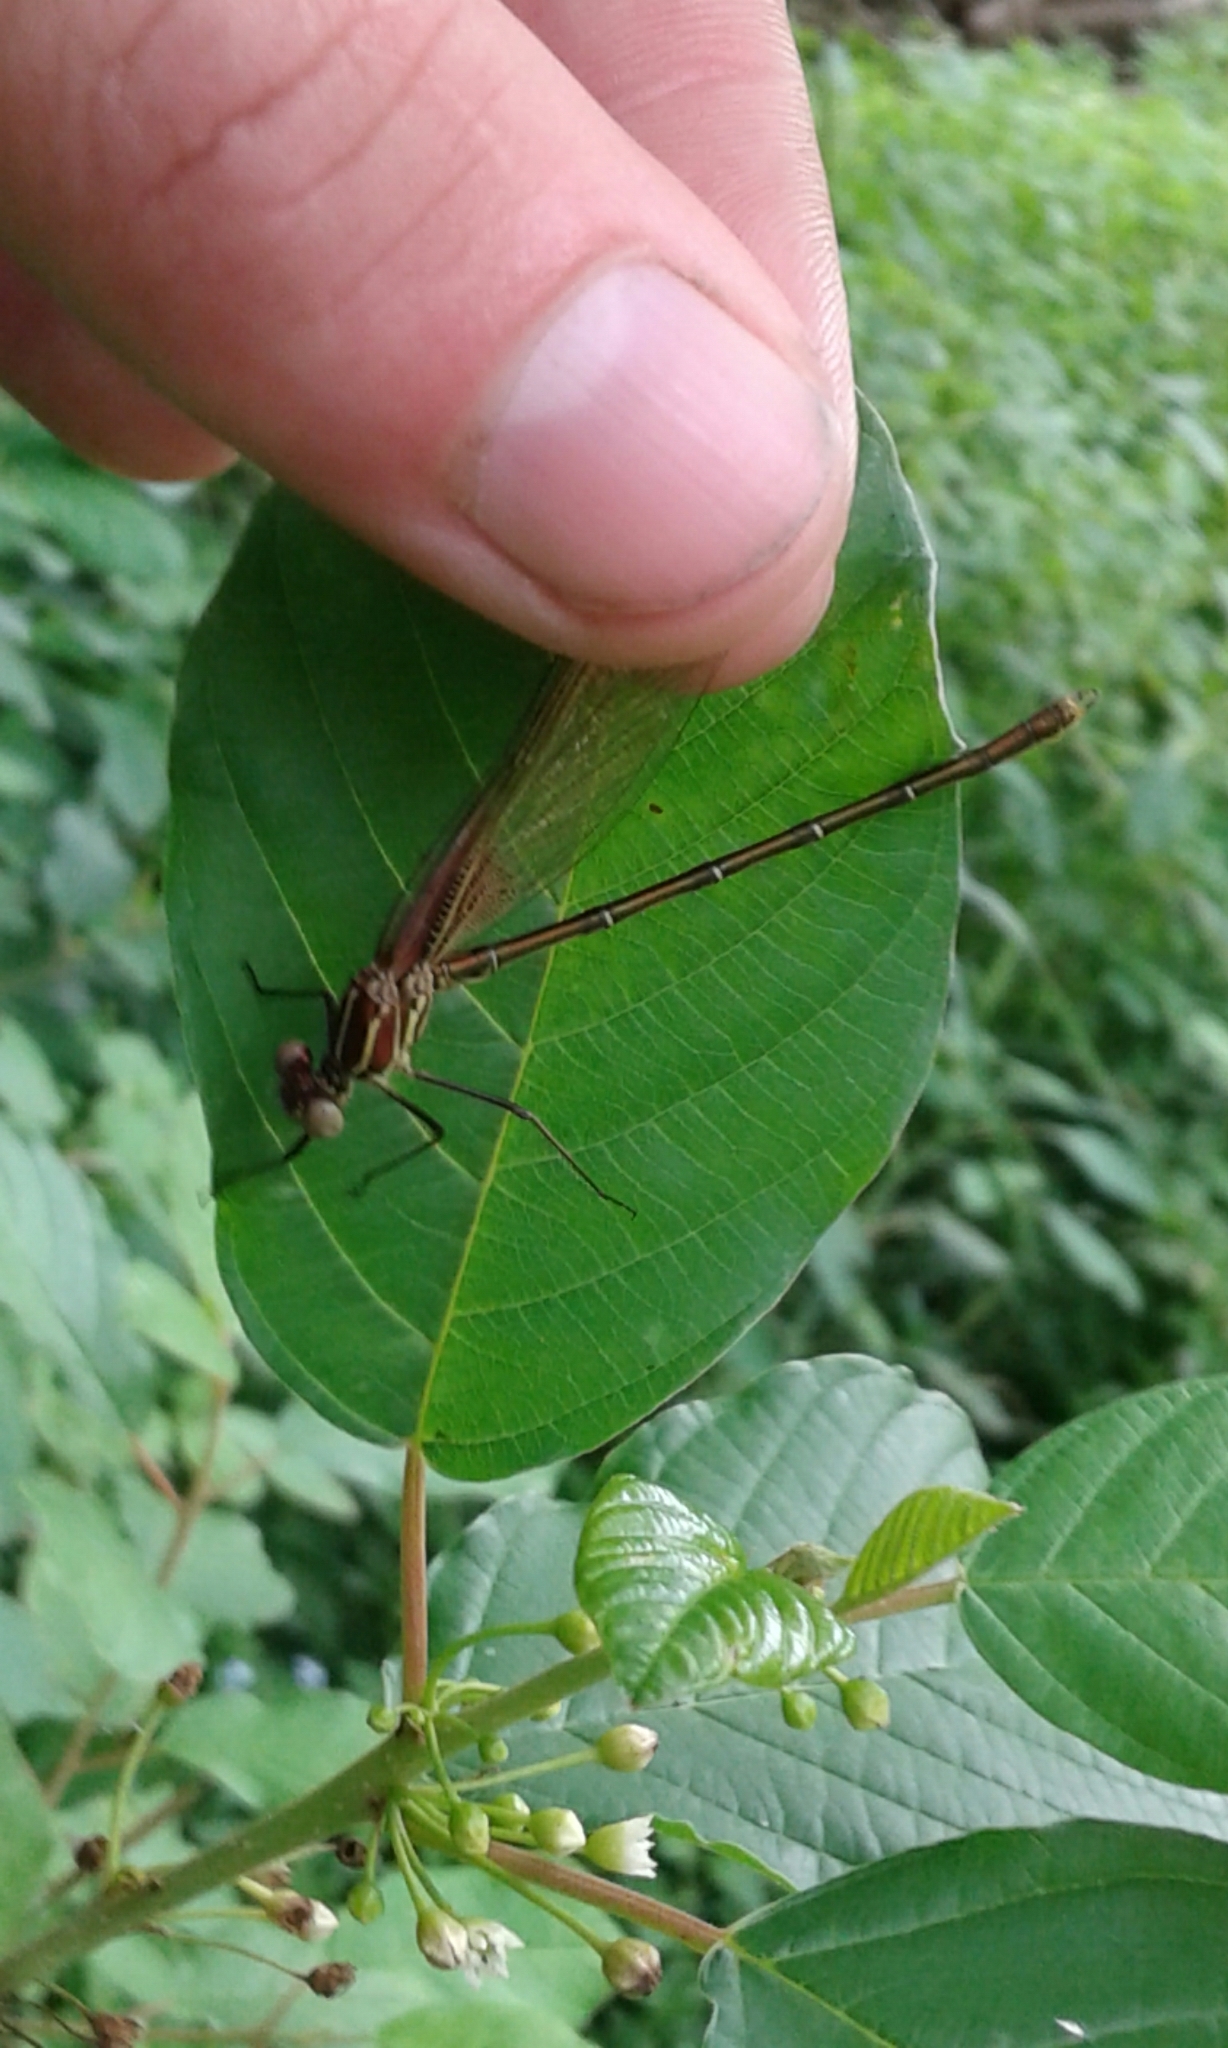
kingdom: Animalia
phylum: Arthropoda
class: Insecta
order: Odonata
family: Calopterygidae
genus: Hetaerina
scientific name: Hetaerina americana
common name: American rubyspot
